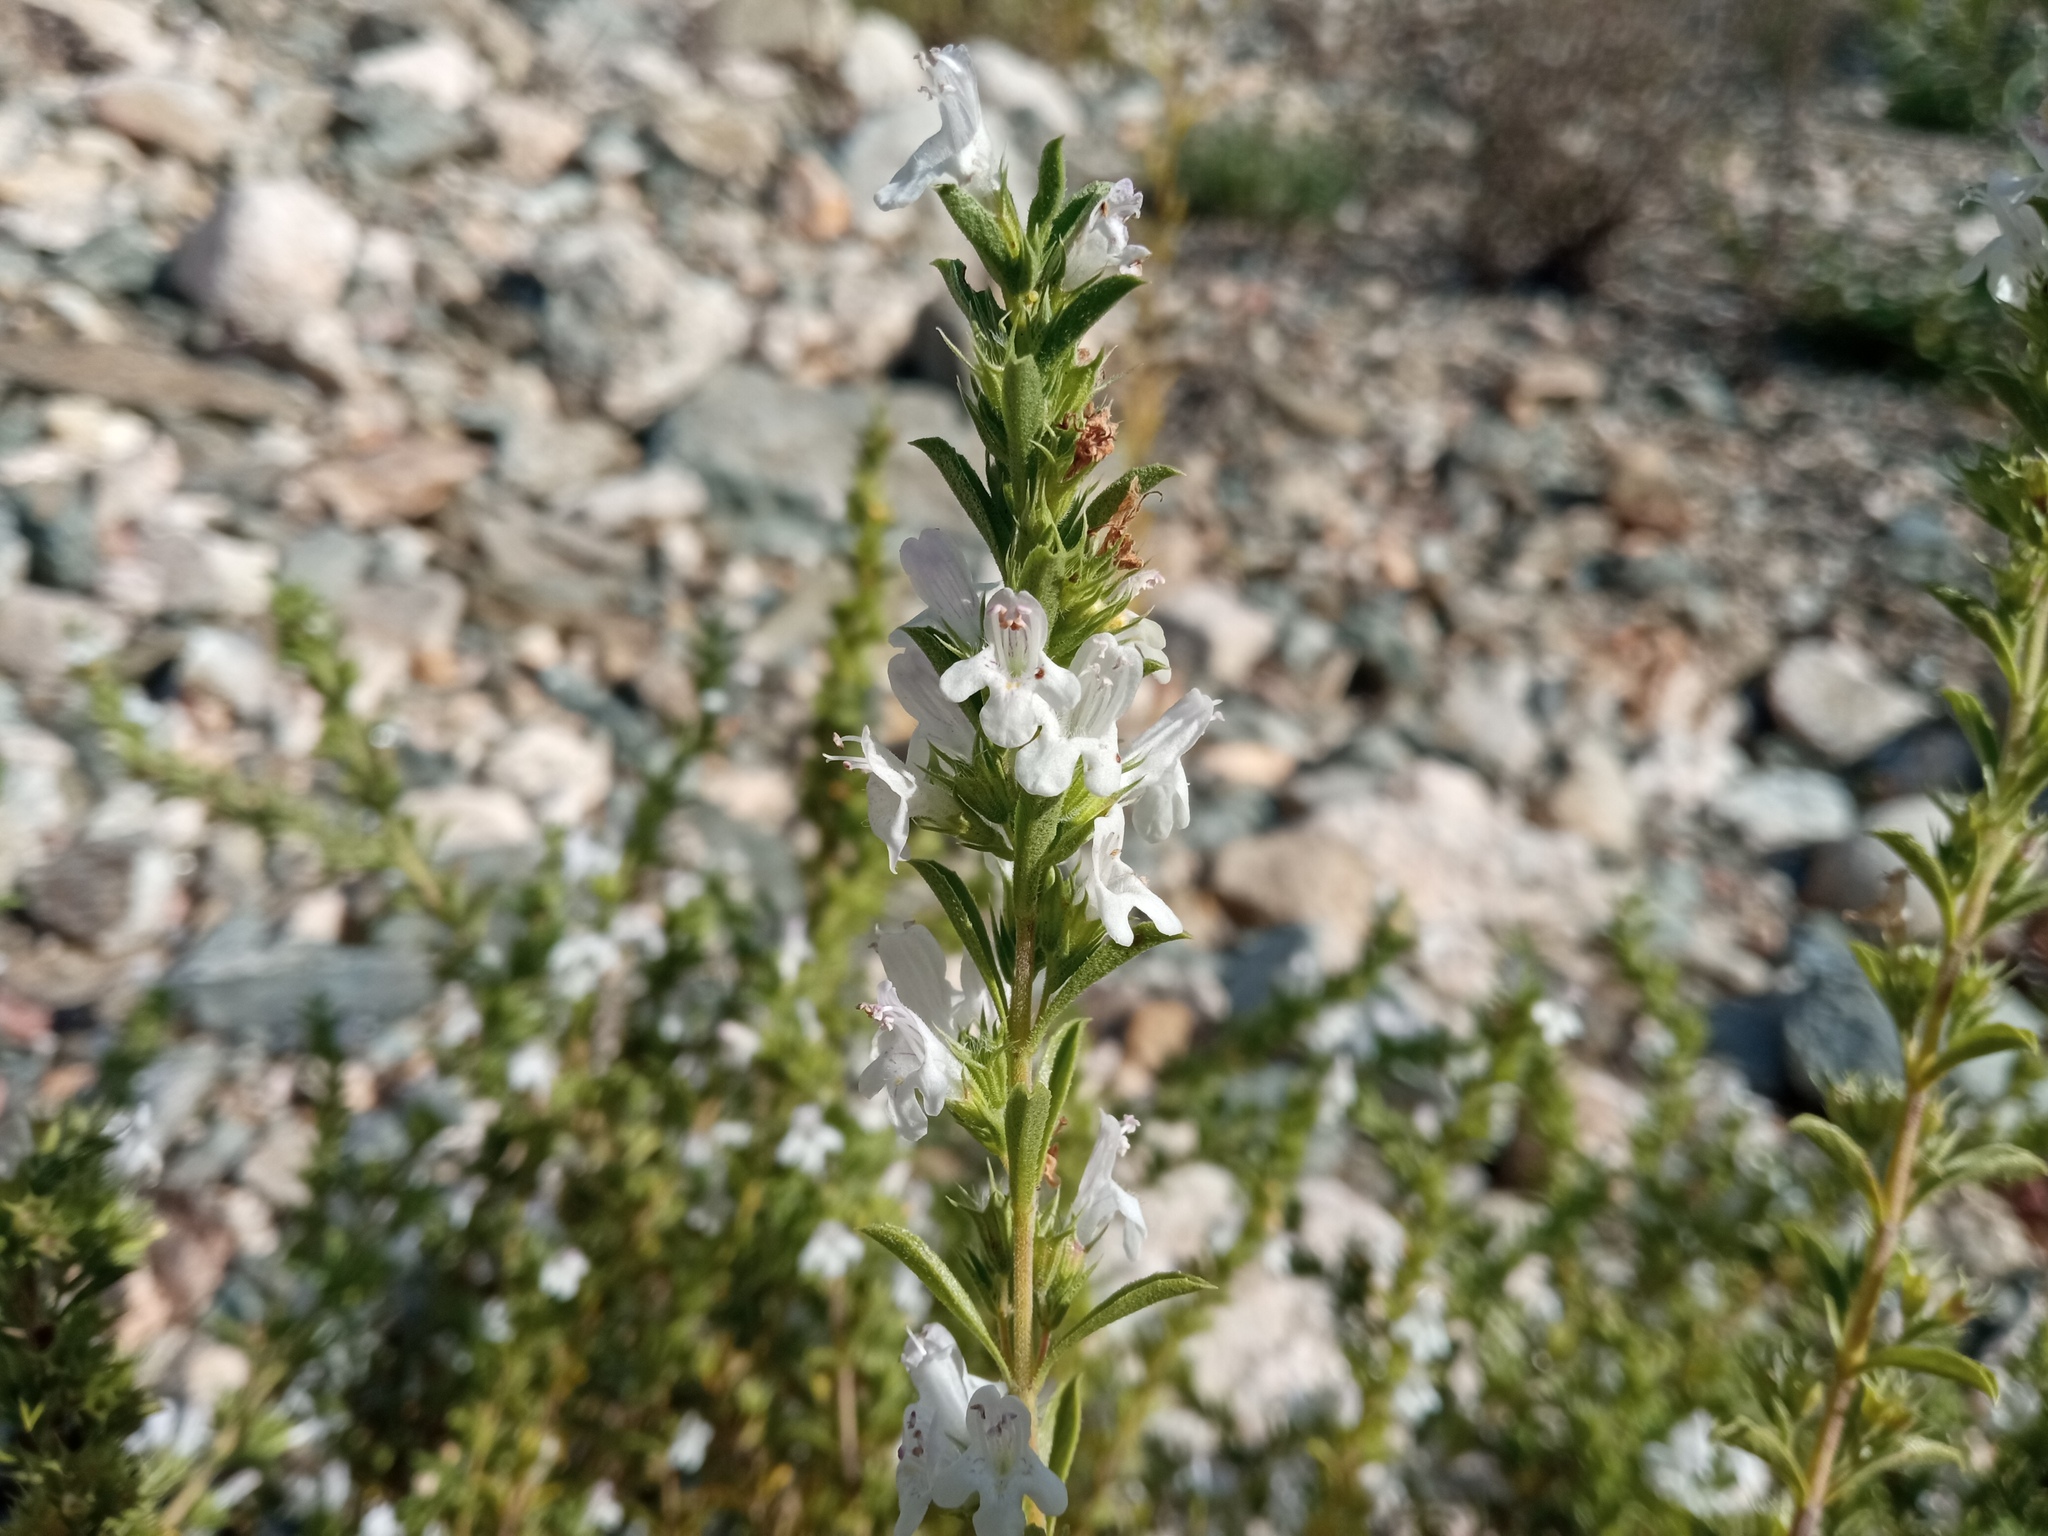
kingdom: Plantae
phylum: Tracheophyta
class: Magnoliopsida
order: Lamiales
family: Lamiaceae
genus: Satureja
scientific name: Satureja montana
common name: Winter savory
